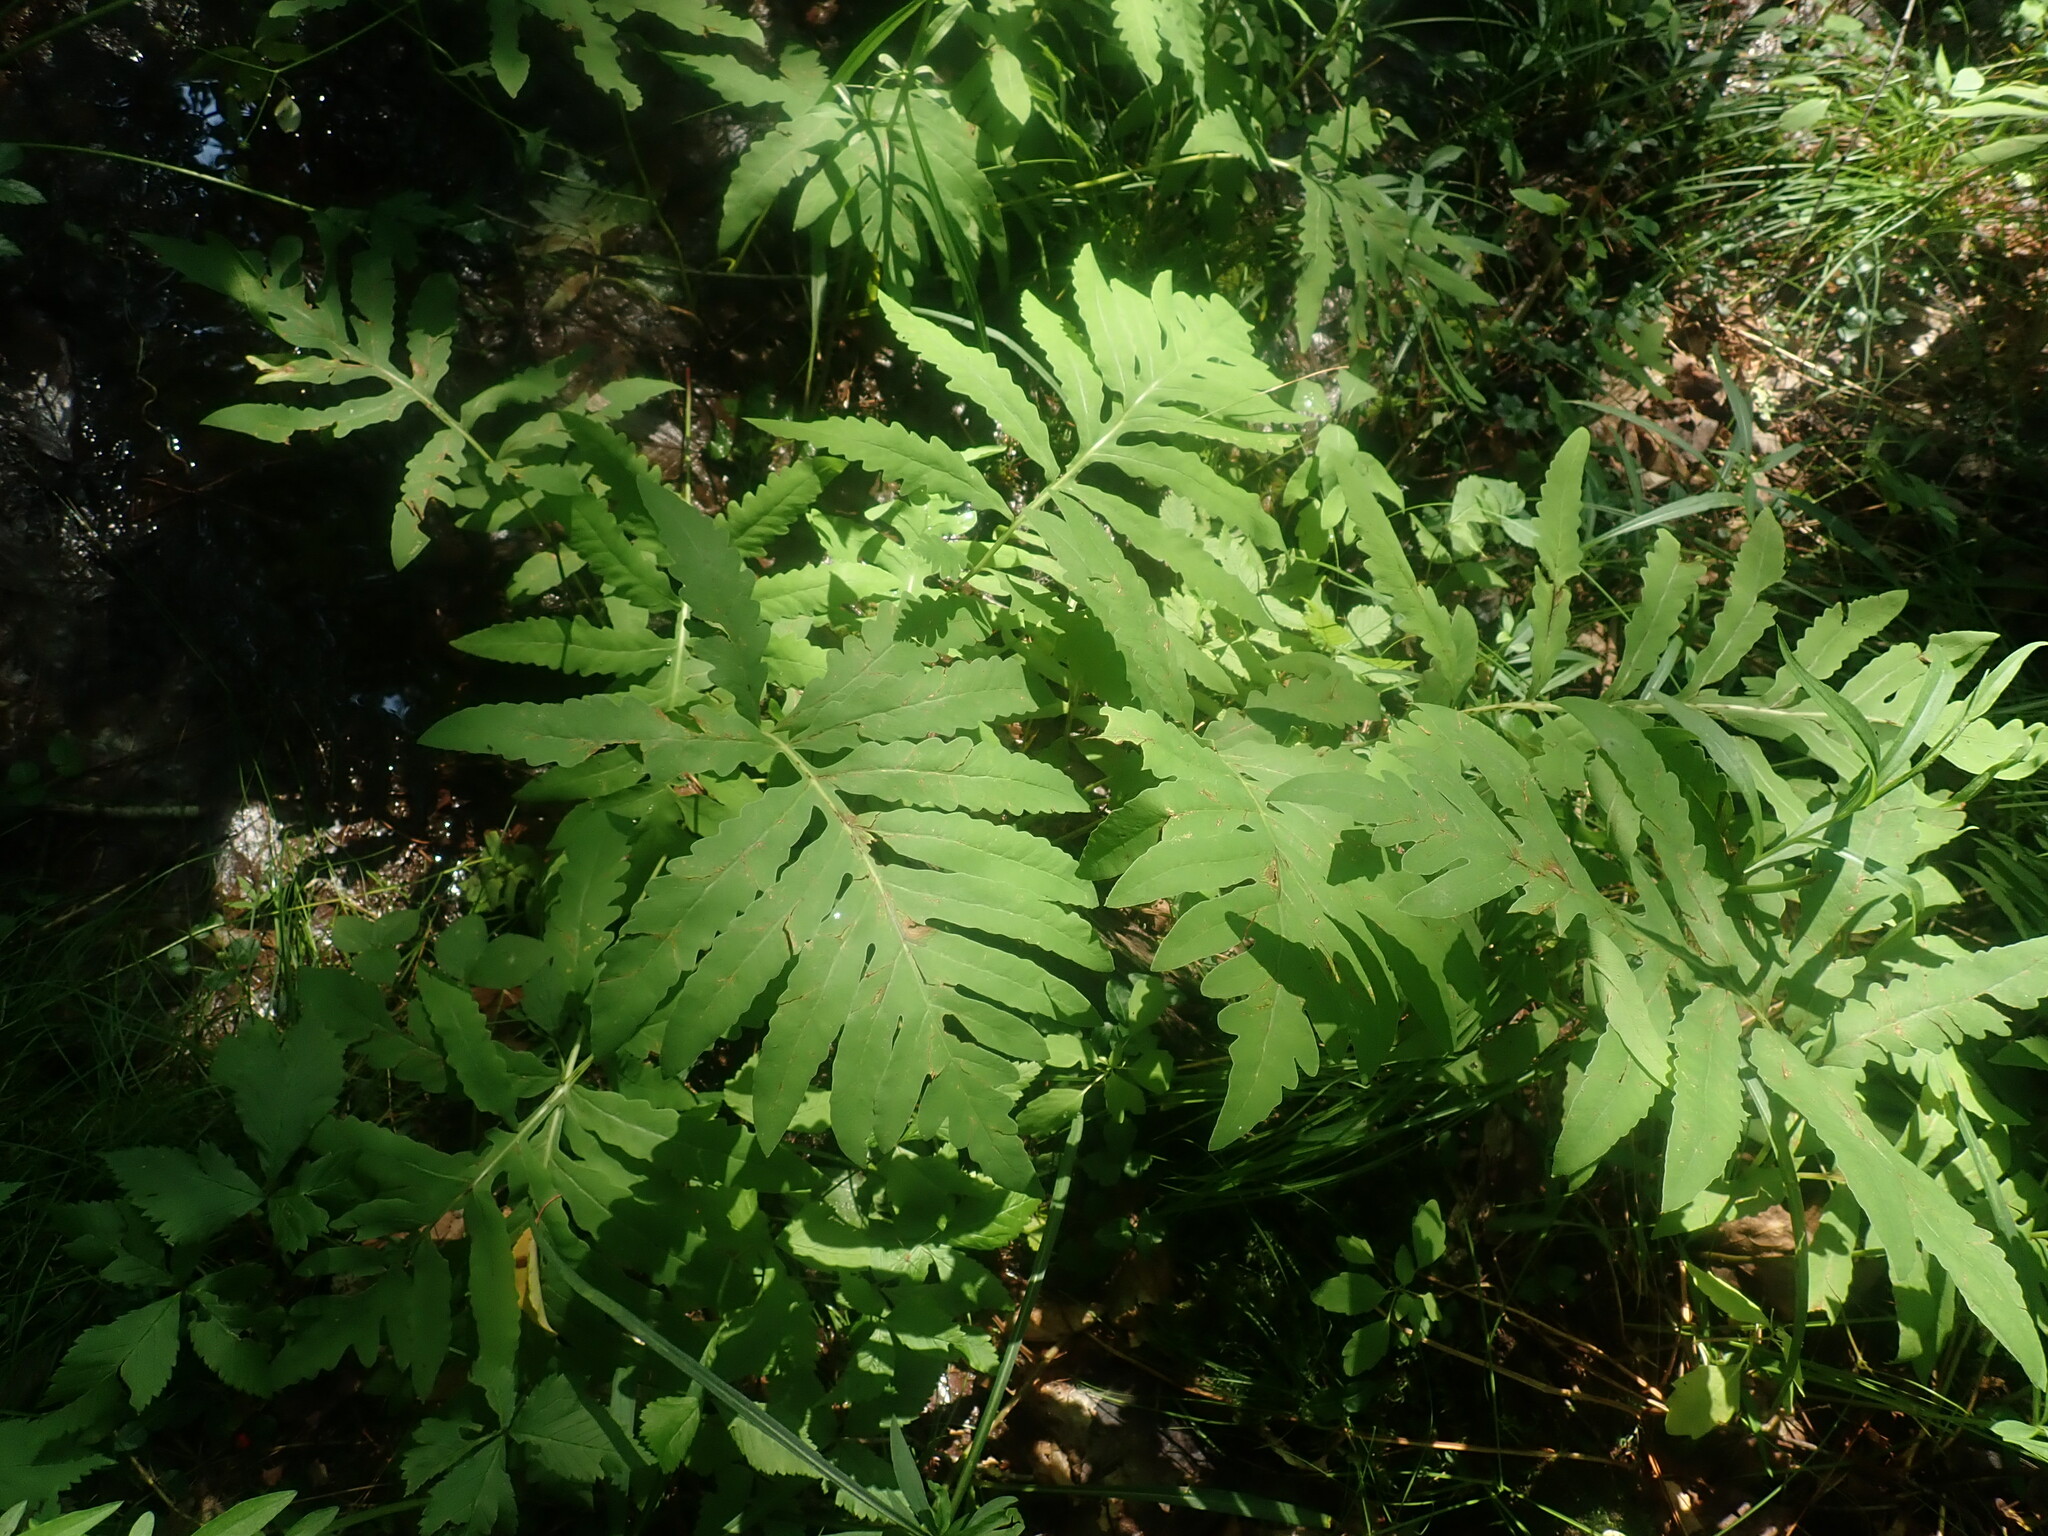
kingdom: Plantae
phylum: Tracheophyta
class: Polypodiopsida
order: Polypodiales
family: Onocleaceae
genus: Onoclea
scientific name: Onoclea sensibilis
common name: Sensitive fern
